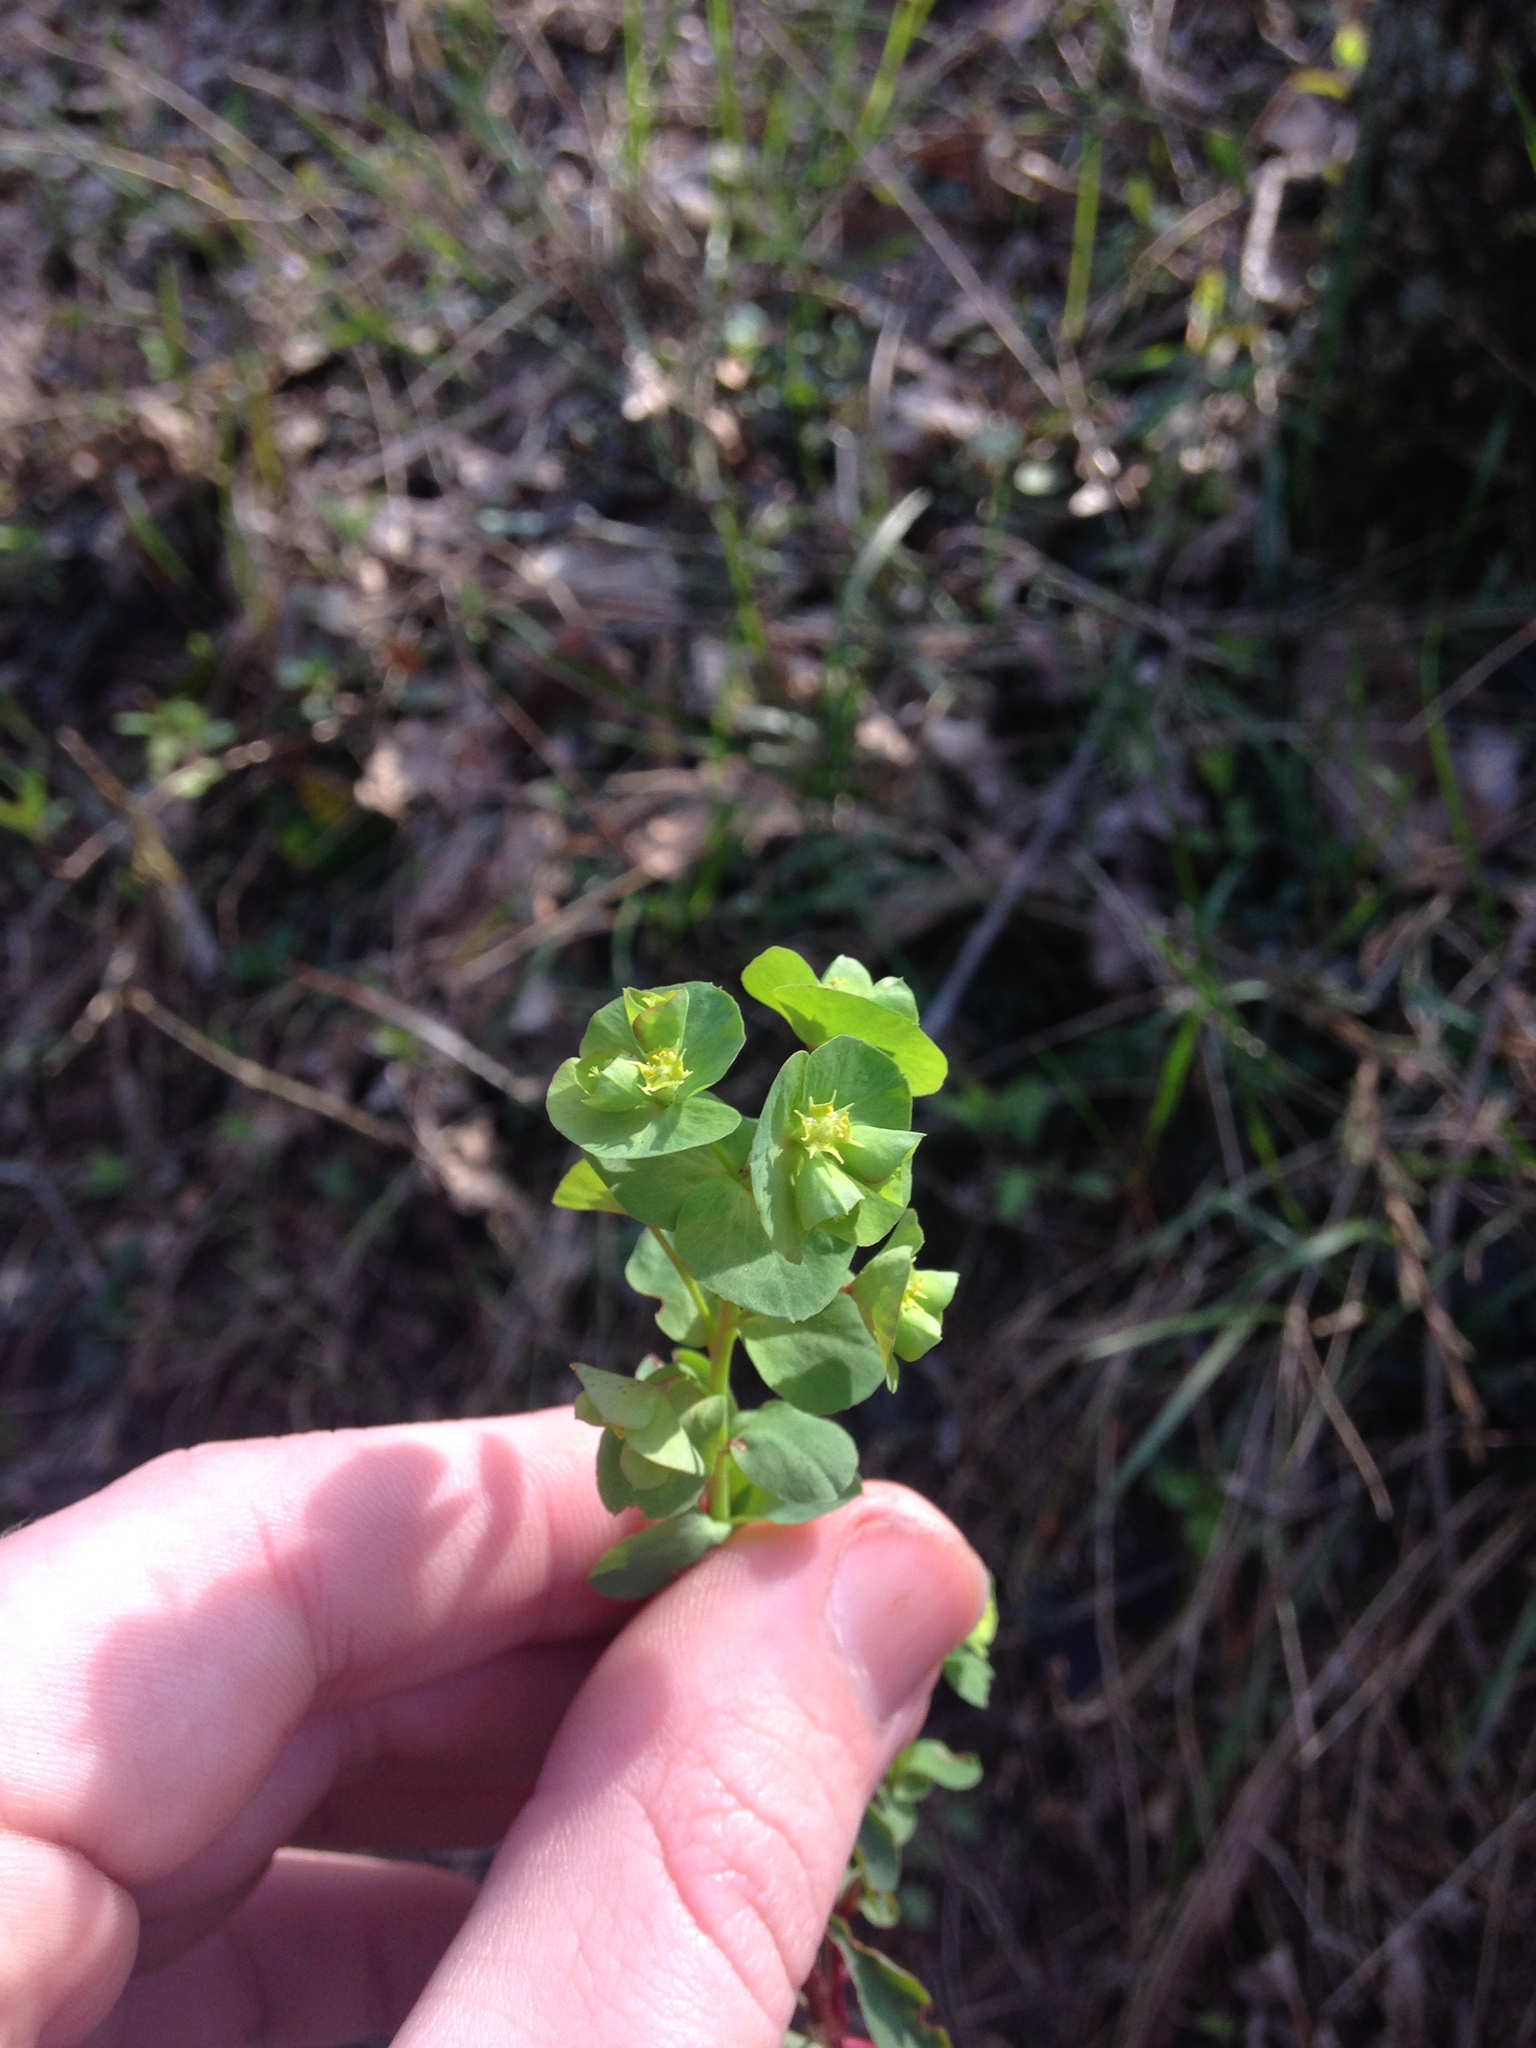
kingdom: Plantae
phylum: Tracheophyta
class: Magnoliopsida
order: Malpighiales
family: Euphorbiaceae
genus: Euphorbia
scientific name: Euphorbia commutata
